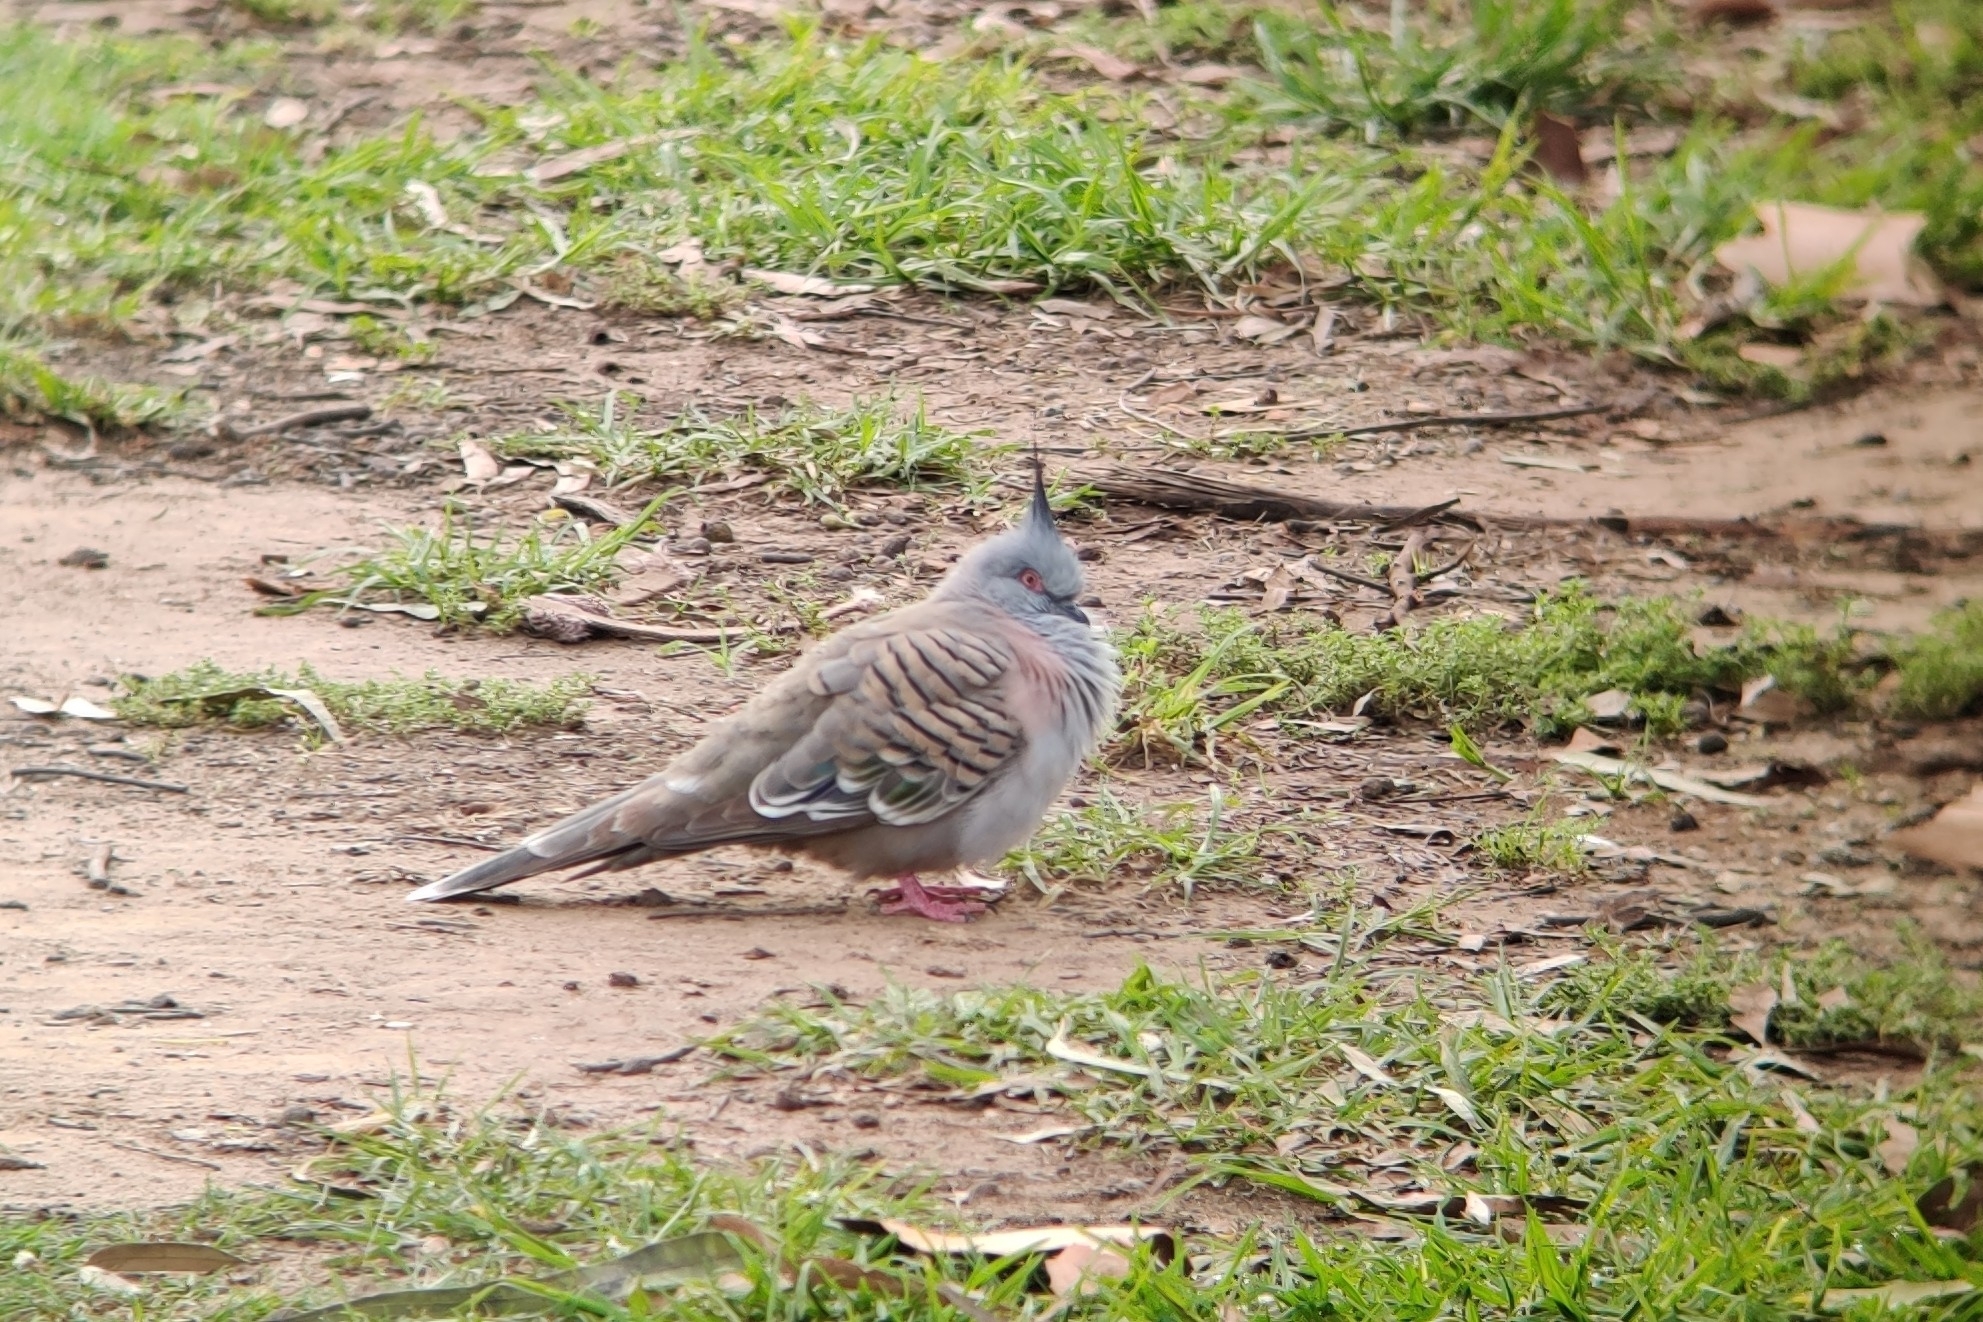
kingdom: Animalia
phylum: Chordata
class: Aves
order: Columbiformes
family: Columbidae
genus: Ocyphaps
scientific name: Ocyphaps lophotes
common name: Crested pigeon
